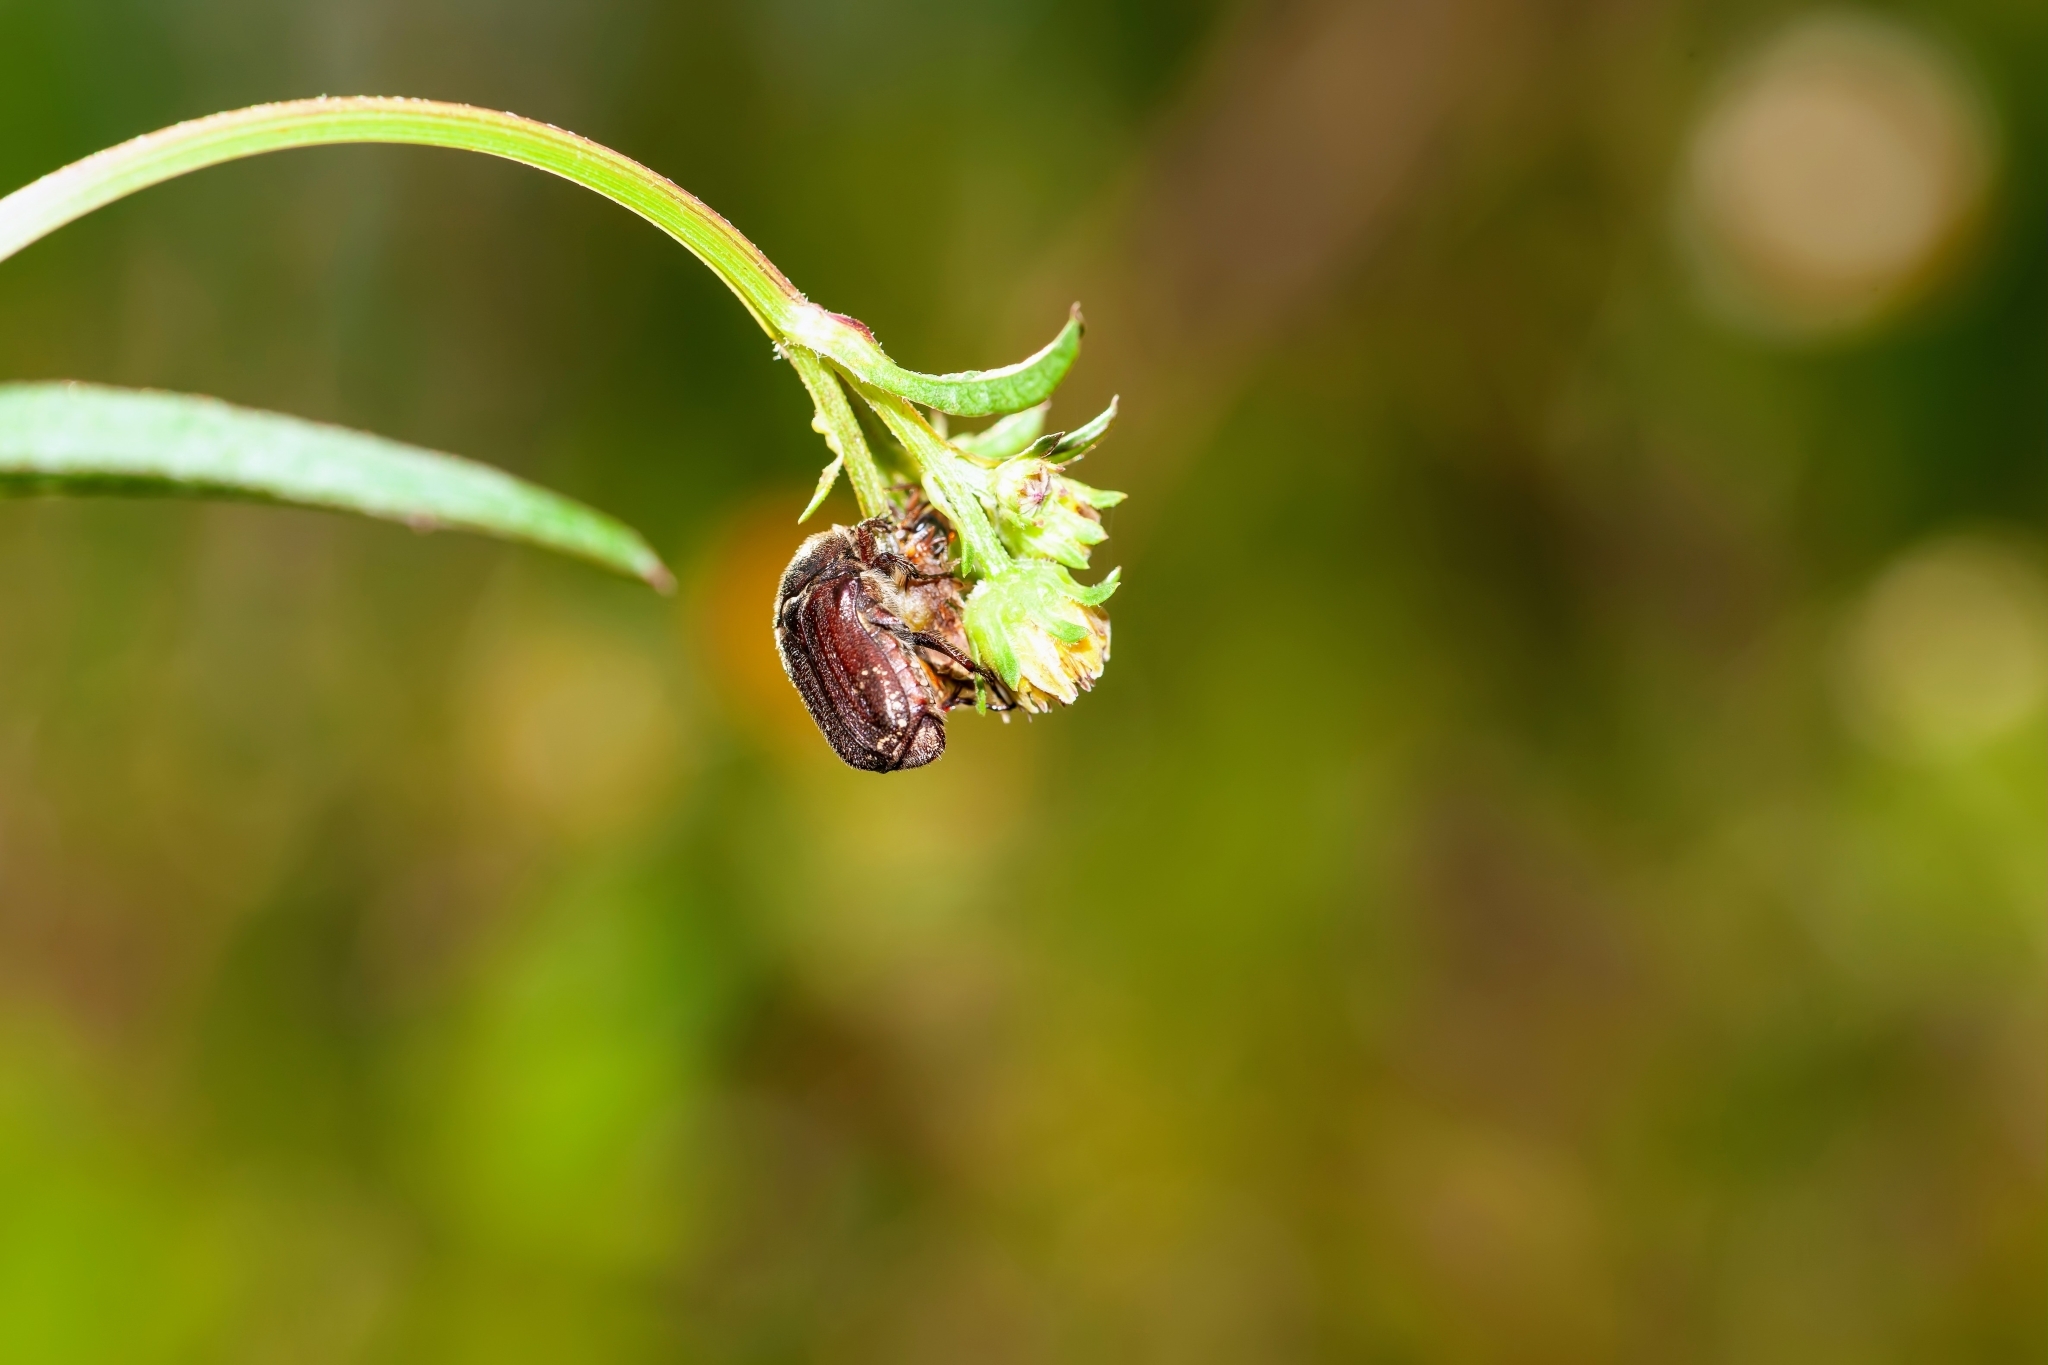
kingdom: Animalia
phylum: Arthropoda
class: Insecta
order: Coleoptera
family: Scarabaeidae
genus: Euphoria
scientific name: Euphoria sepulcralis
